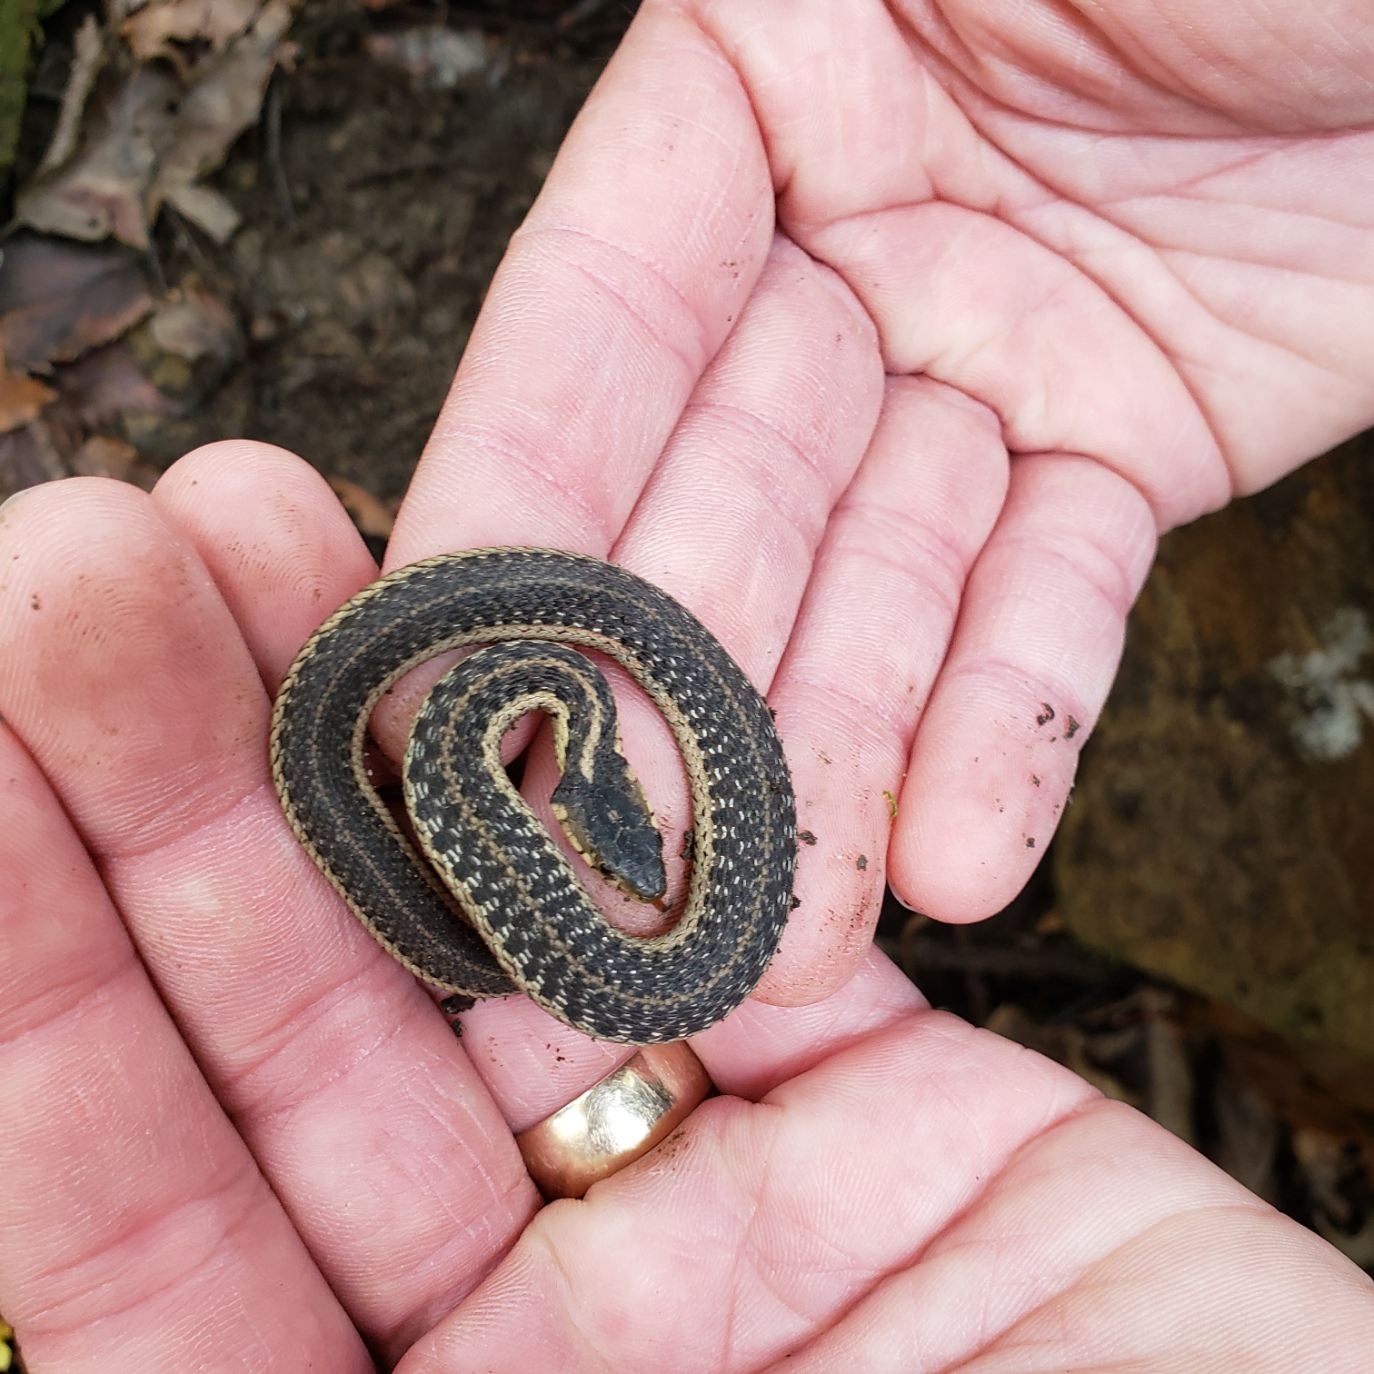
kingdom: Animalia
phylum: Chordata
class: Squamata
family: Colubridae
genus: Thamnophis
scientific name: Thamnophis sirtalis
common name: Common garter snake
